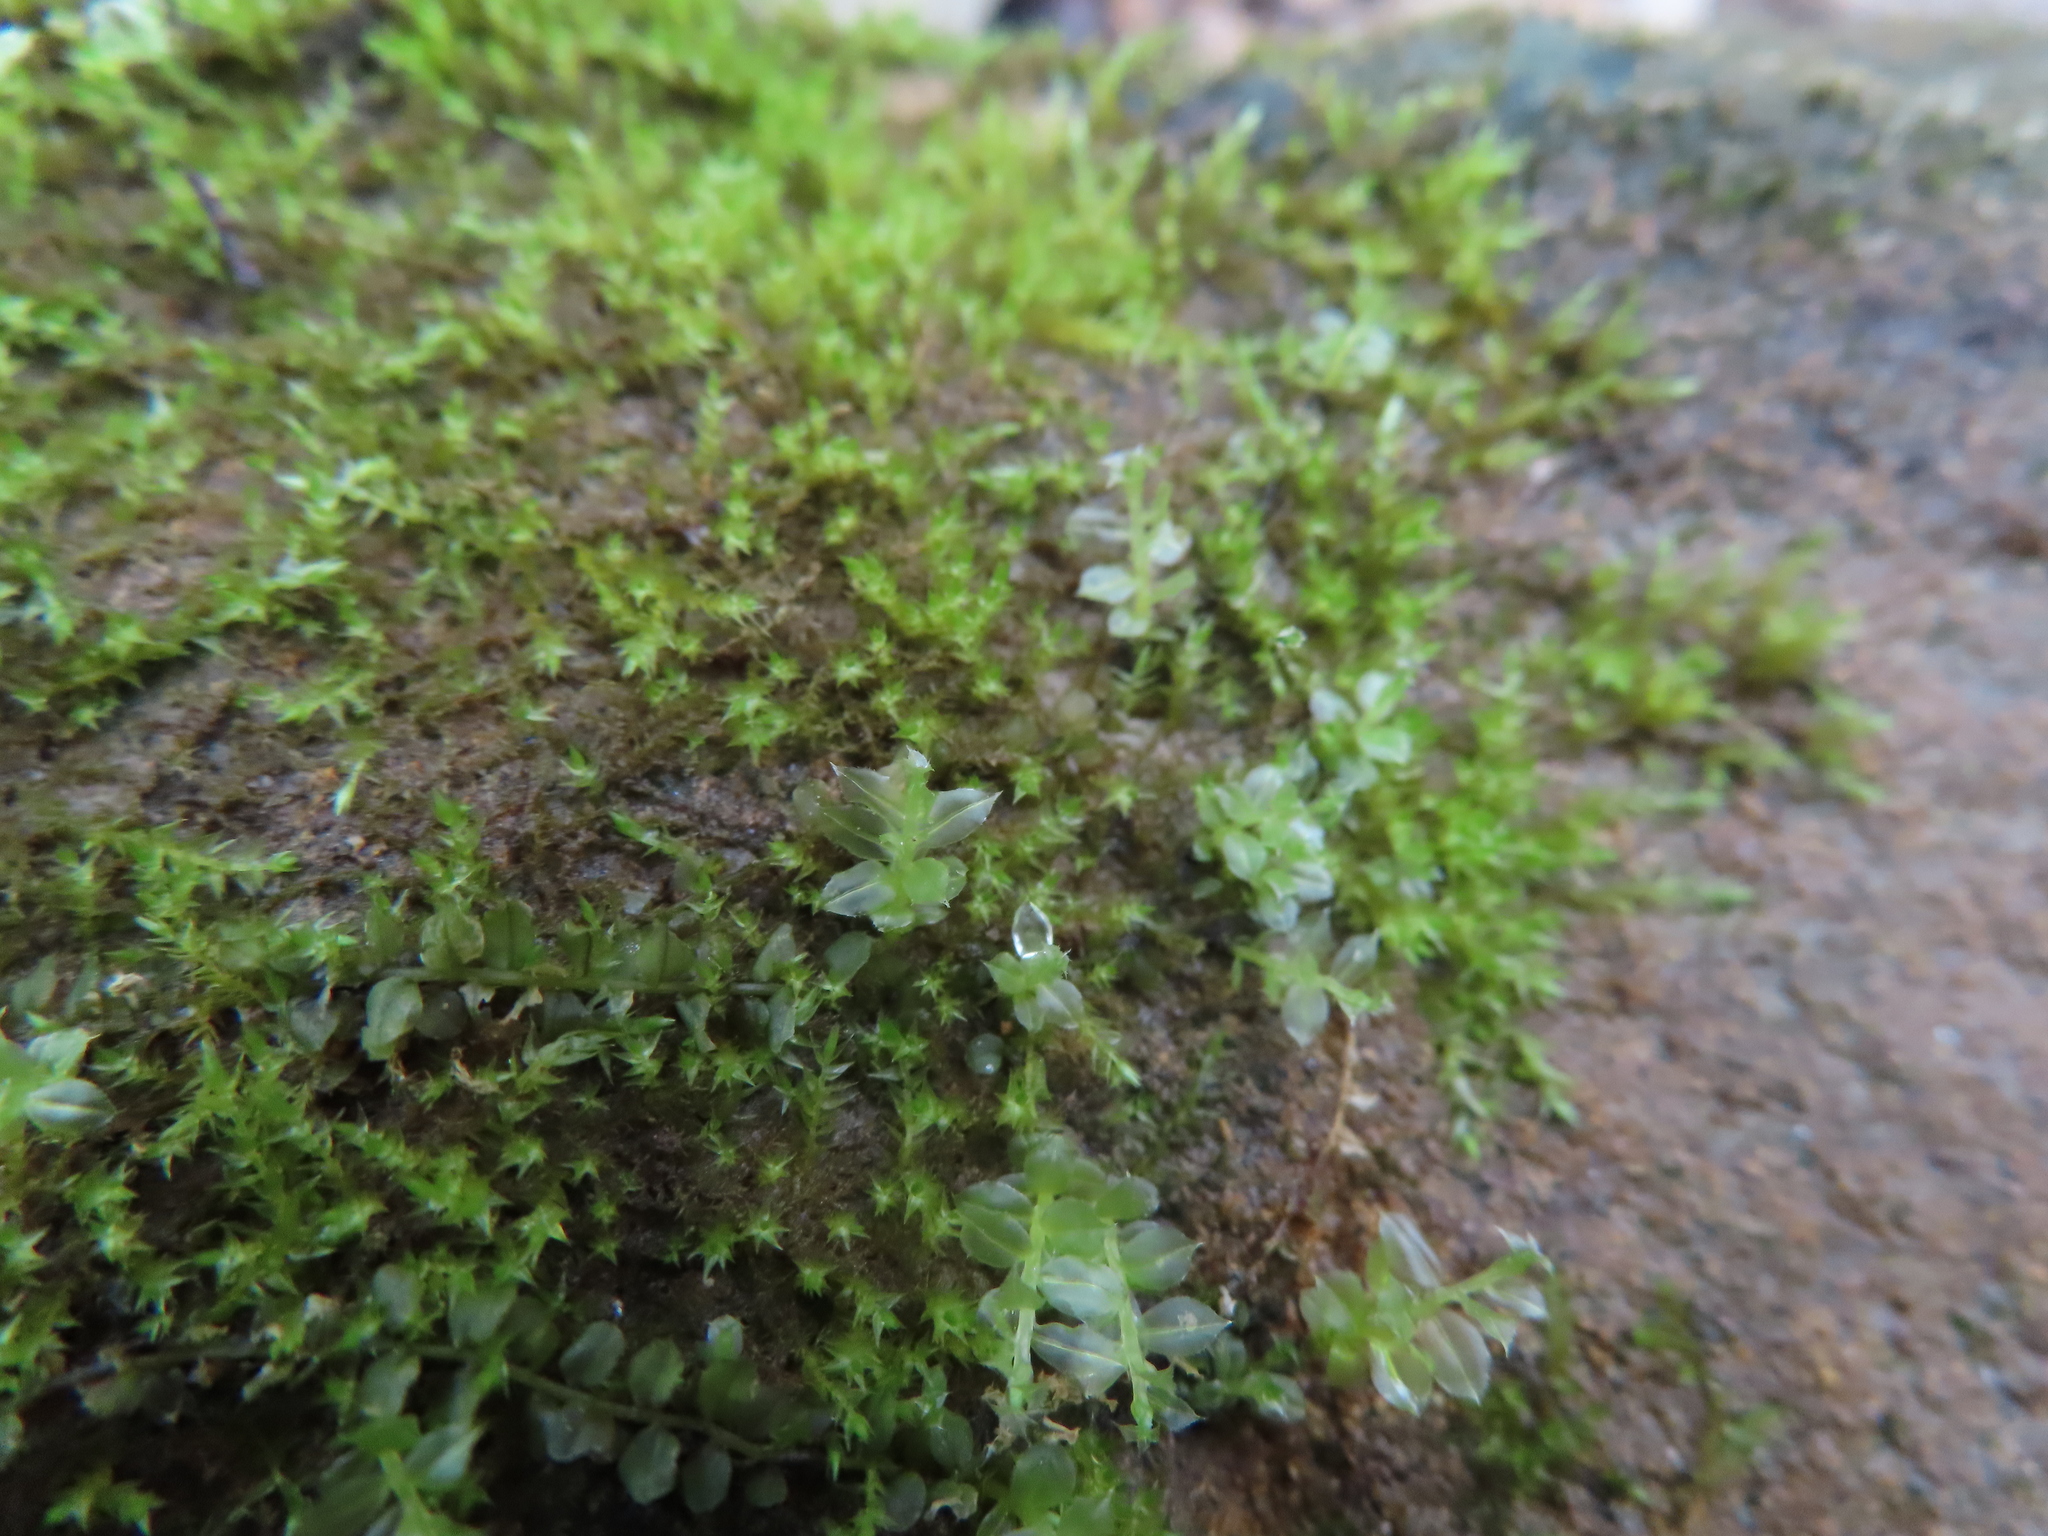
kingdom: Plantae
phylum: Bryophyta
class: Bryopsida
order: Bryales
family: Mniaceae
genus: Plagiomnium
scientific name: Plagiomnium cuspidatum
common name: Woodsy leafy moss
